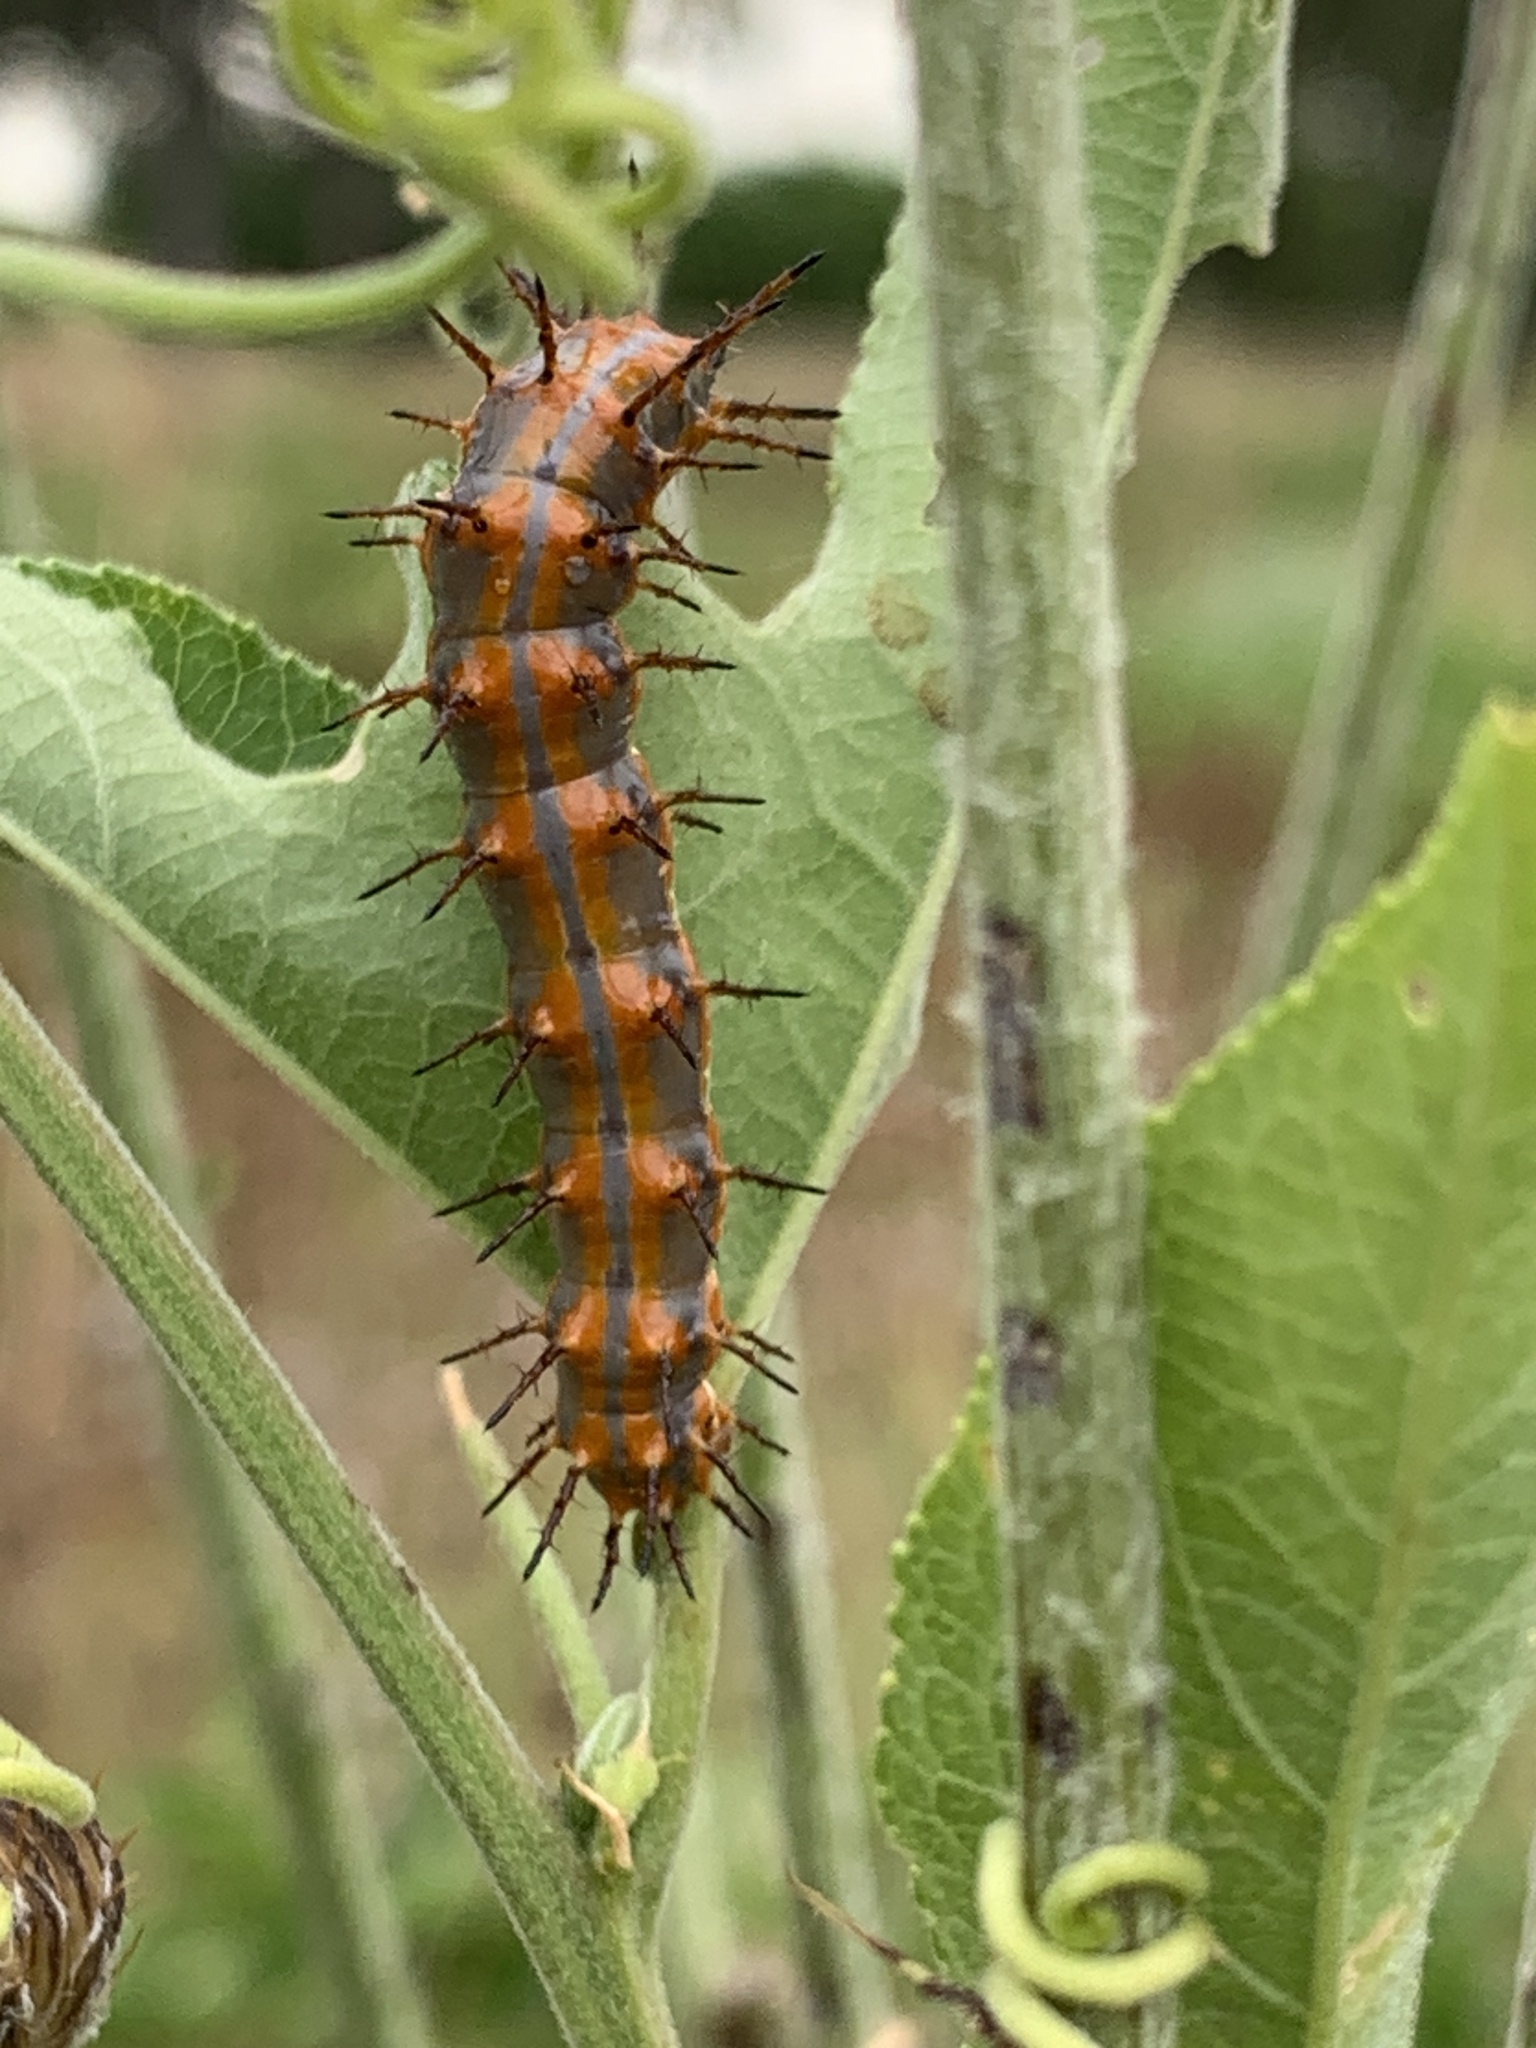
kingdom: Animalia
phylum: Arthropoda
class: Insecta
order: Lepidoptera
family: Nymphalidae
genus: Dione
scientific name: Dione vanillae
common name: Gulf fritillary
